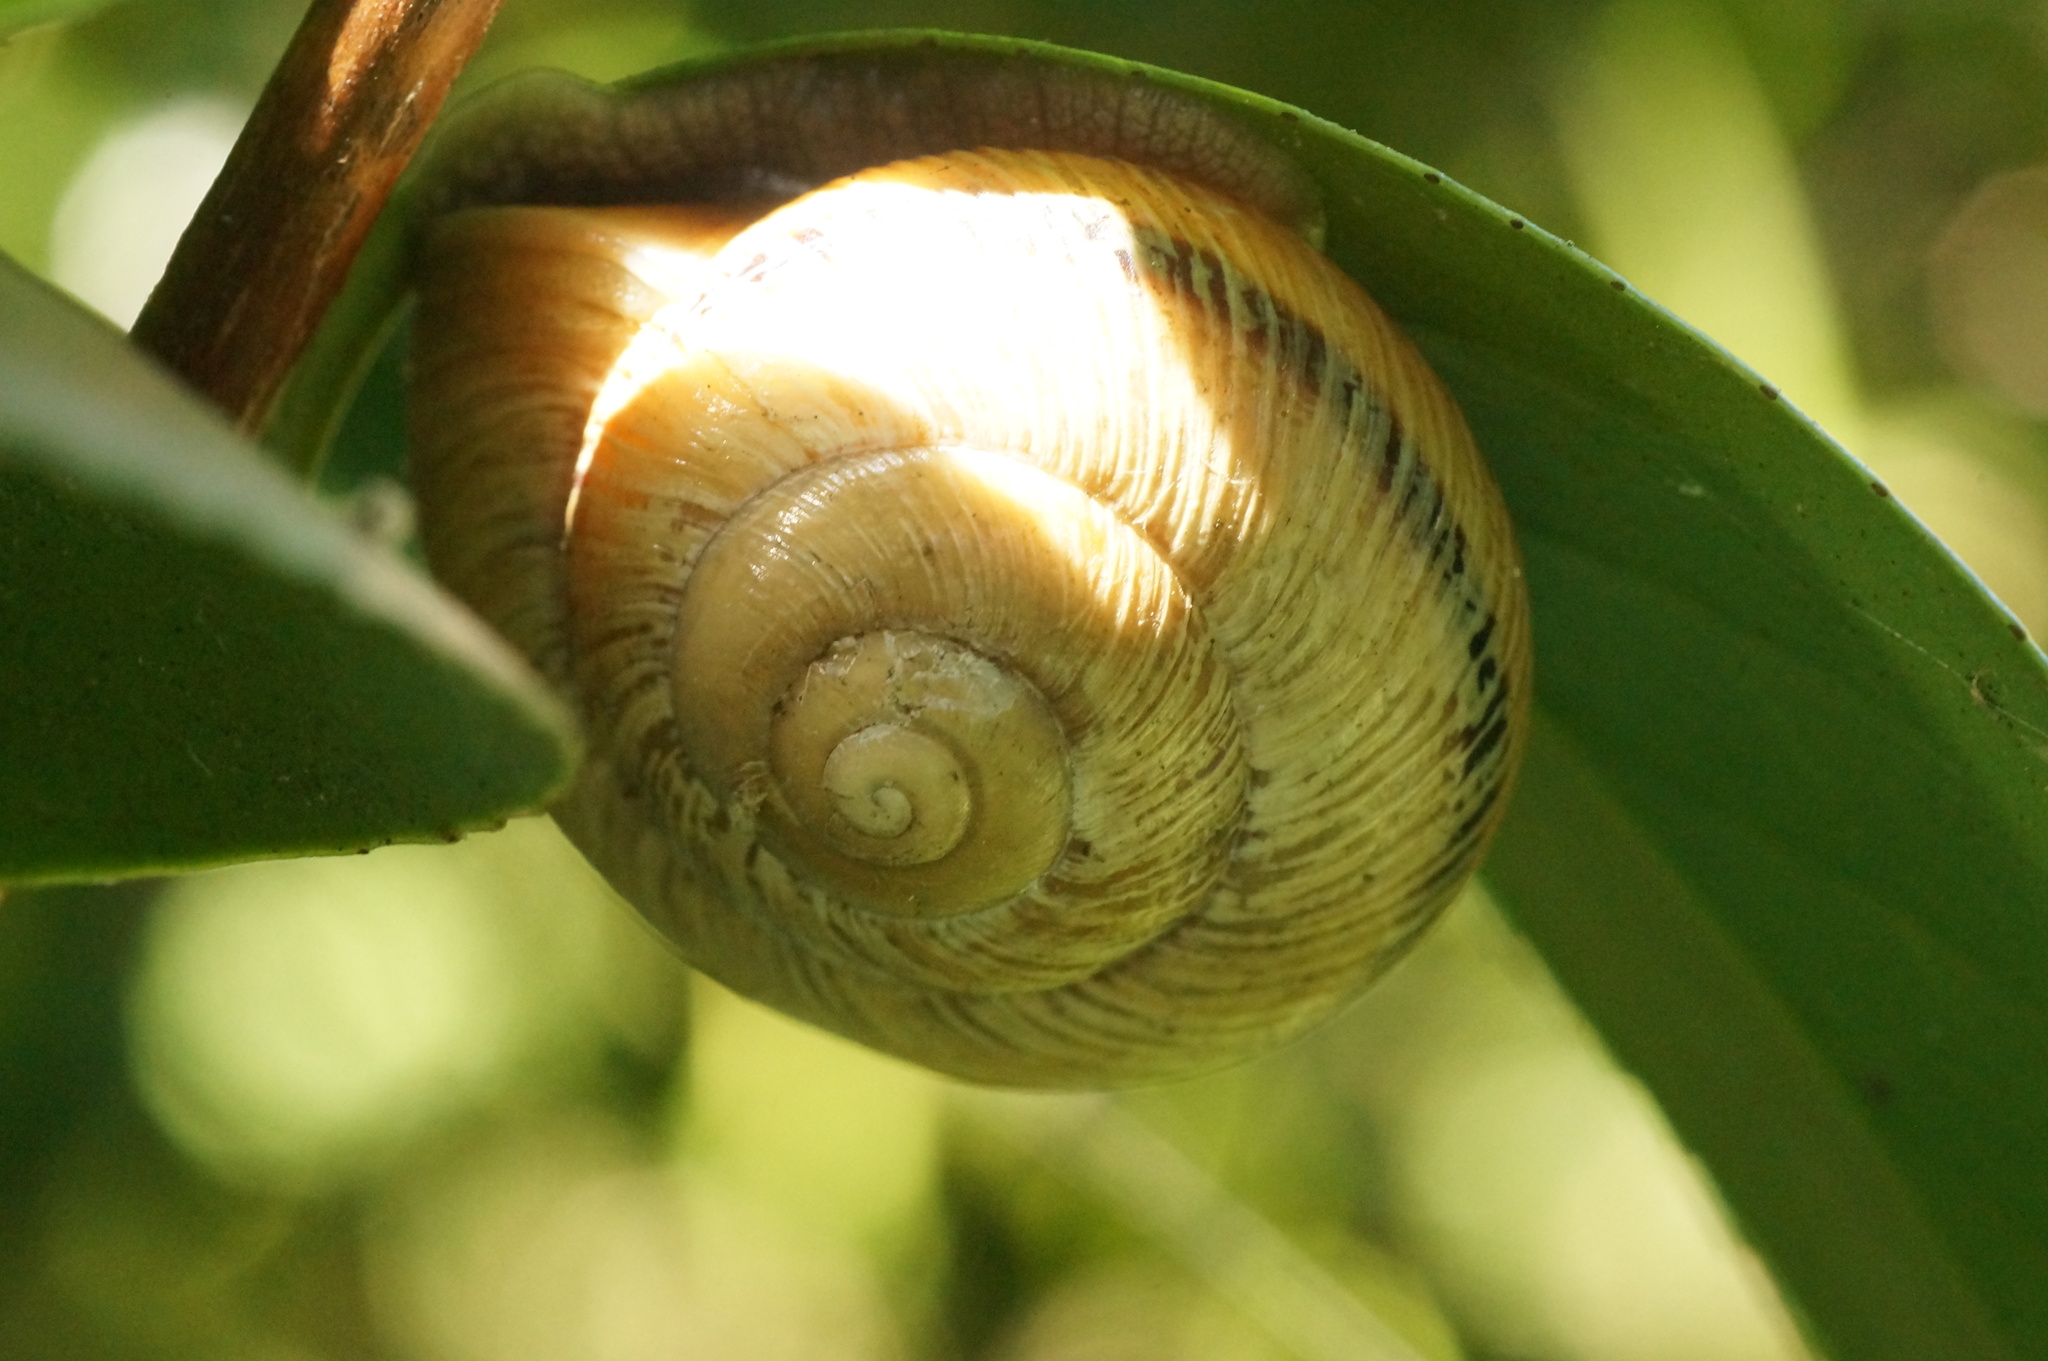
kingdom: Animalia
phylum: Mollusca
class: Gastropoda
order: Stylommatophora
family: Helicidae
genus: Caucasotachea
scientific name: Caucasotachea atrolabiata
